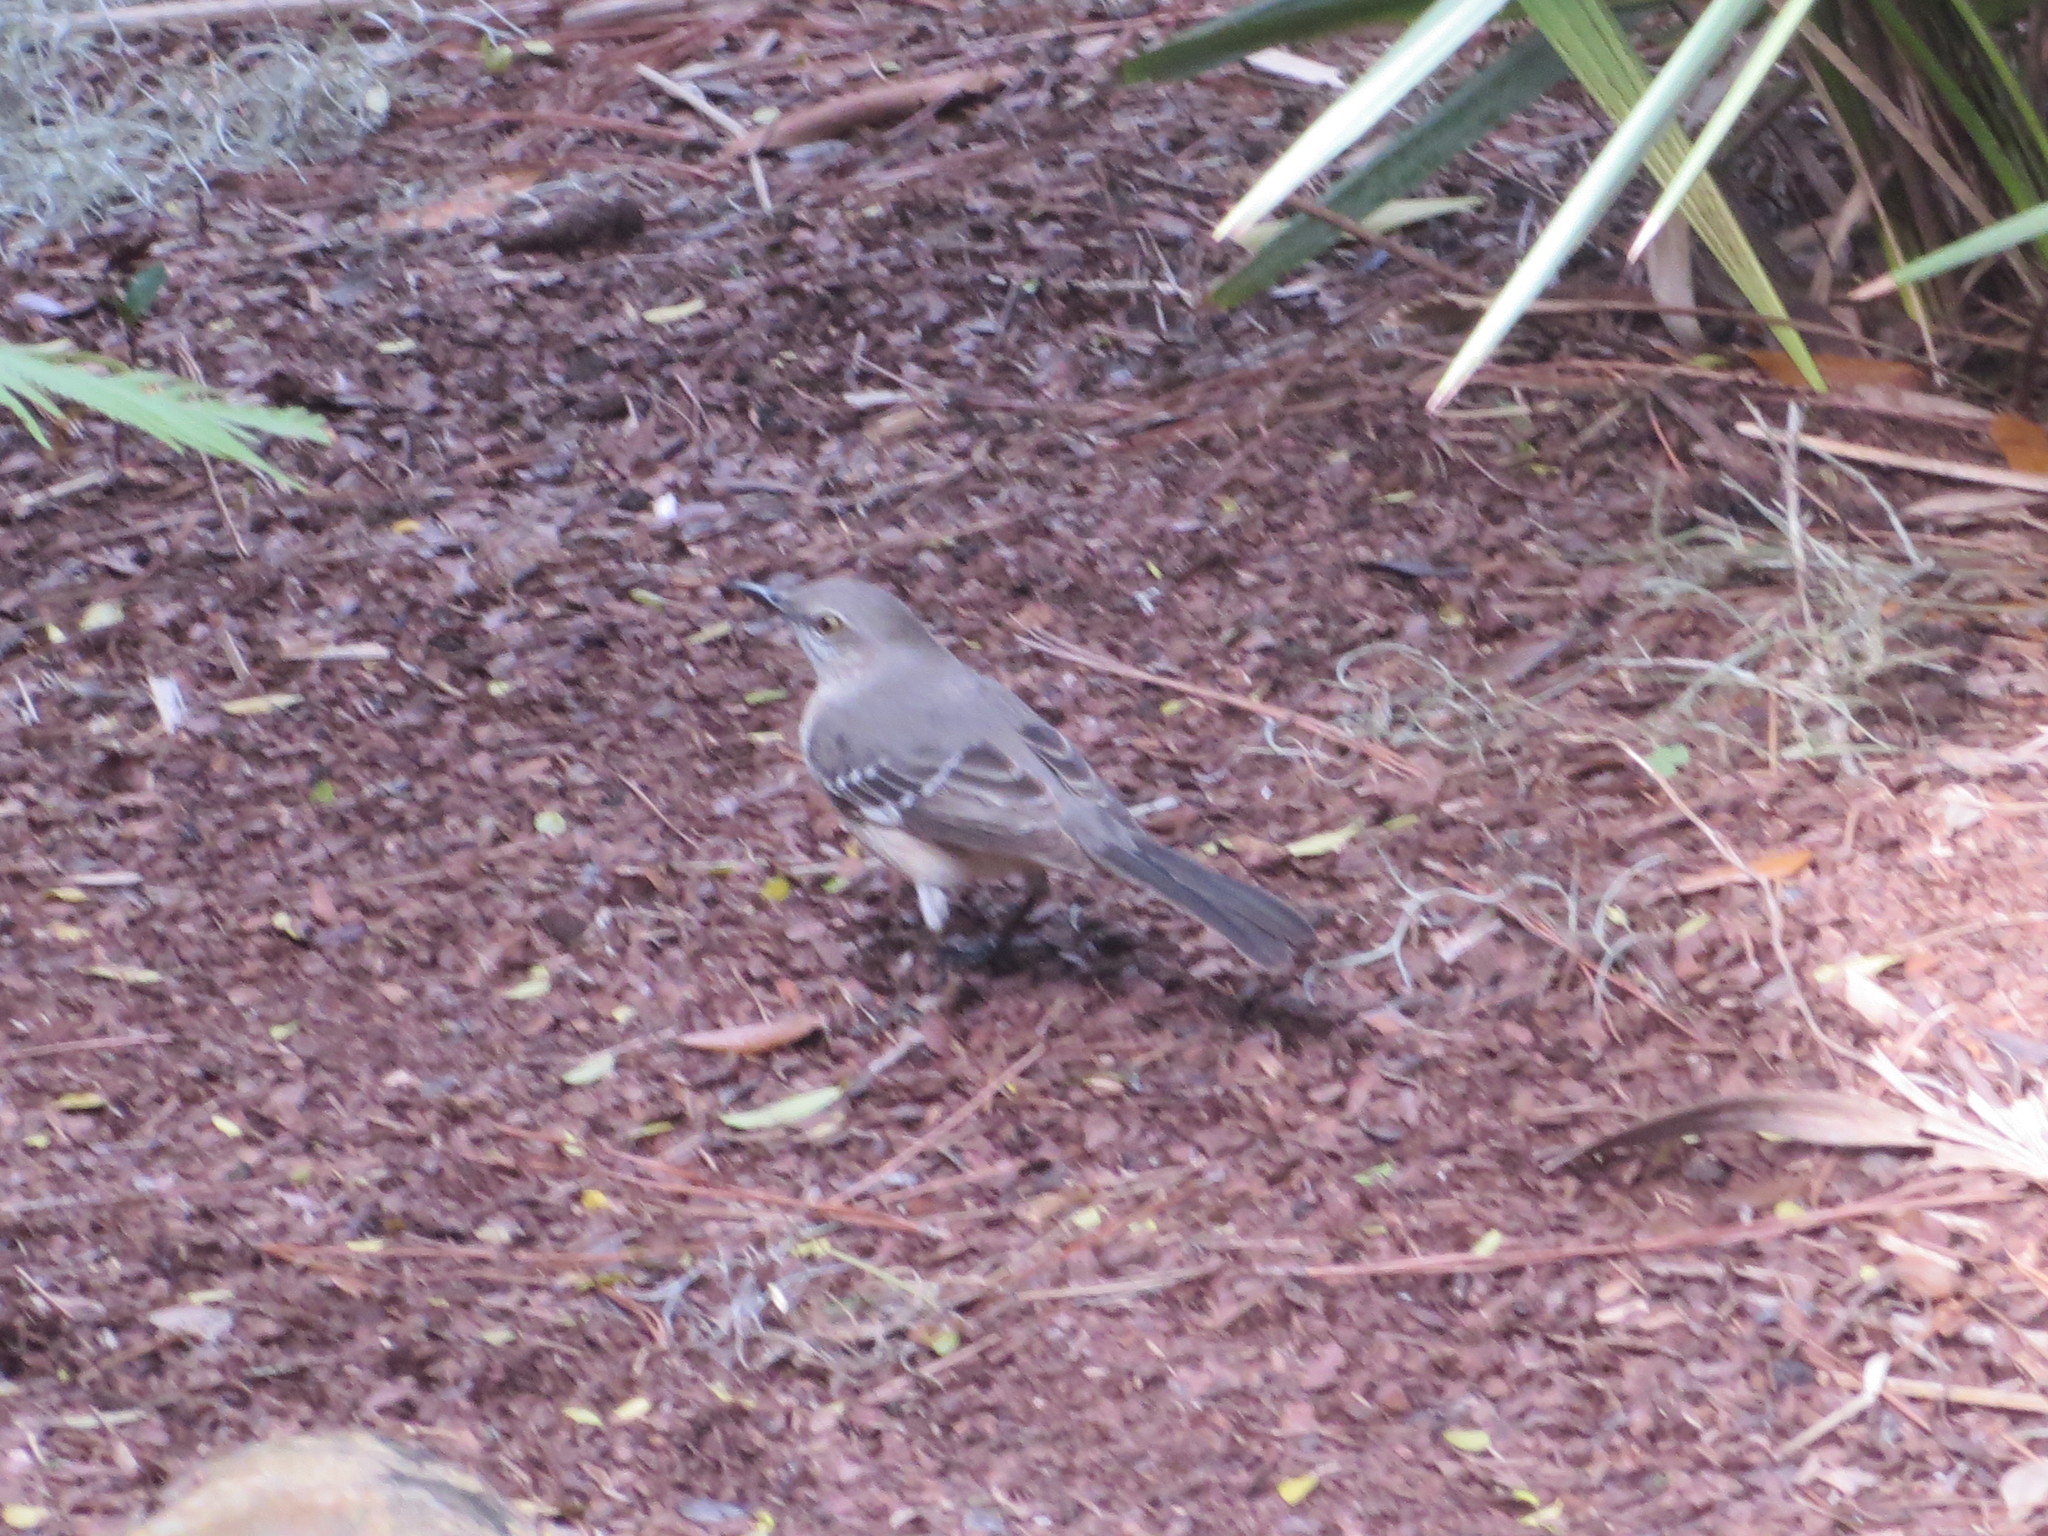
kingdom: Animalia
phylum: Chordata
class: Aves
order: Passeriformes
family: Mimidae
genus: Mimus
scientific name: Mimus polyglottos
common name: Northern mockingbird
